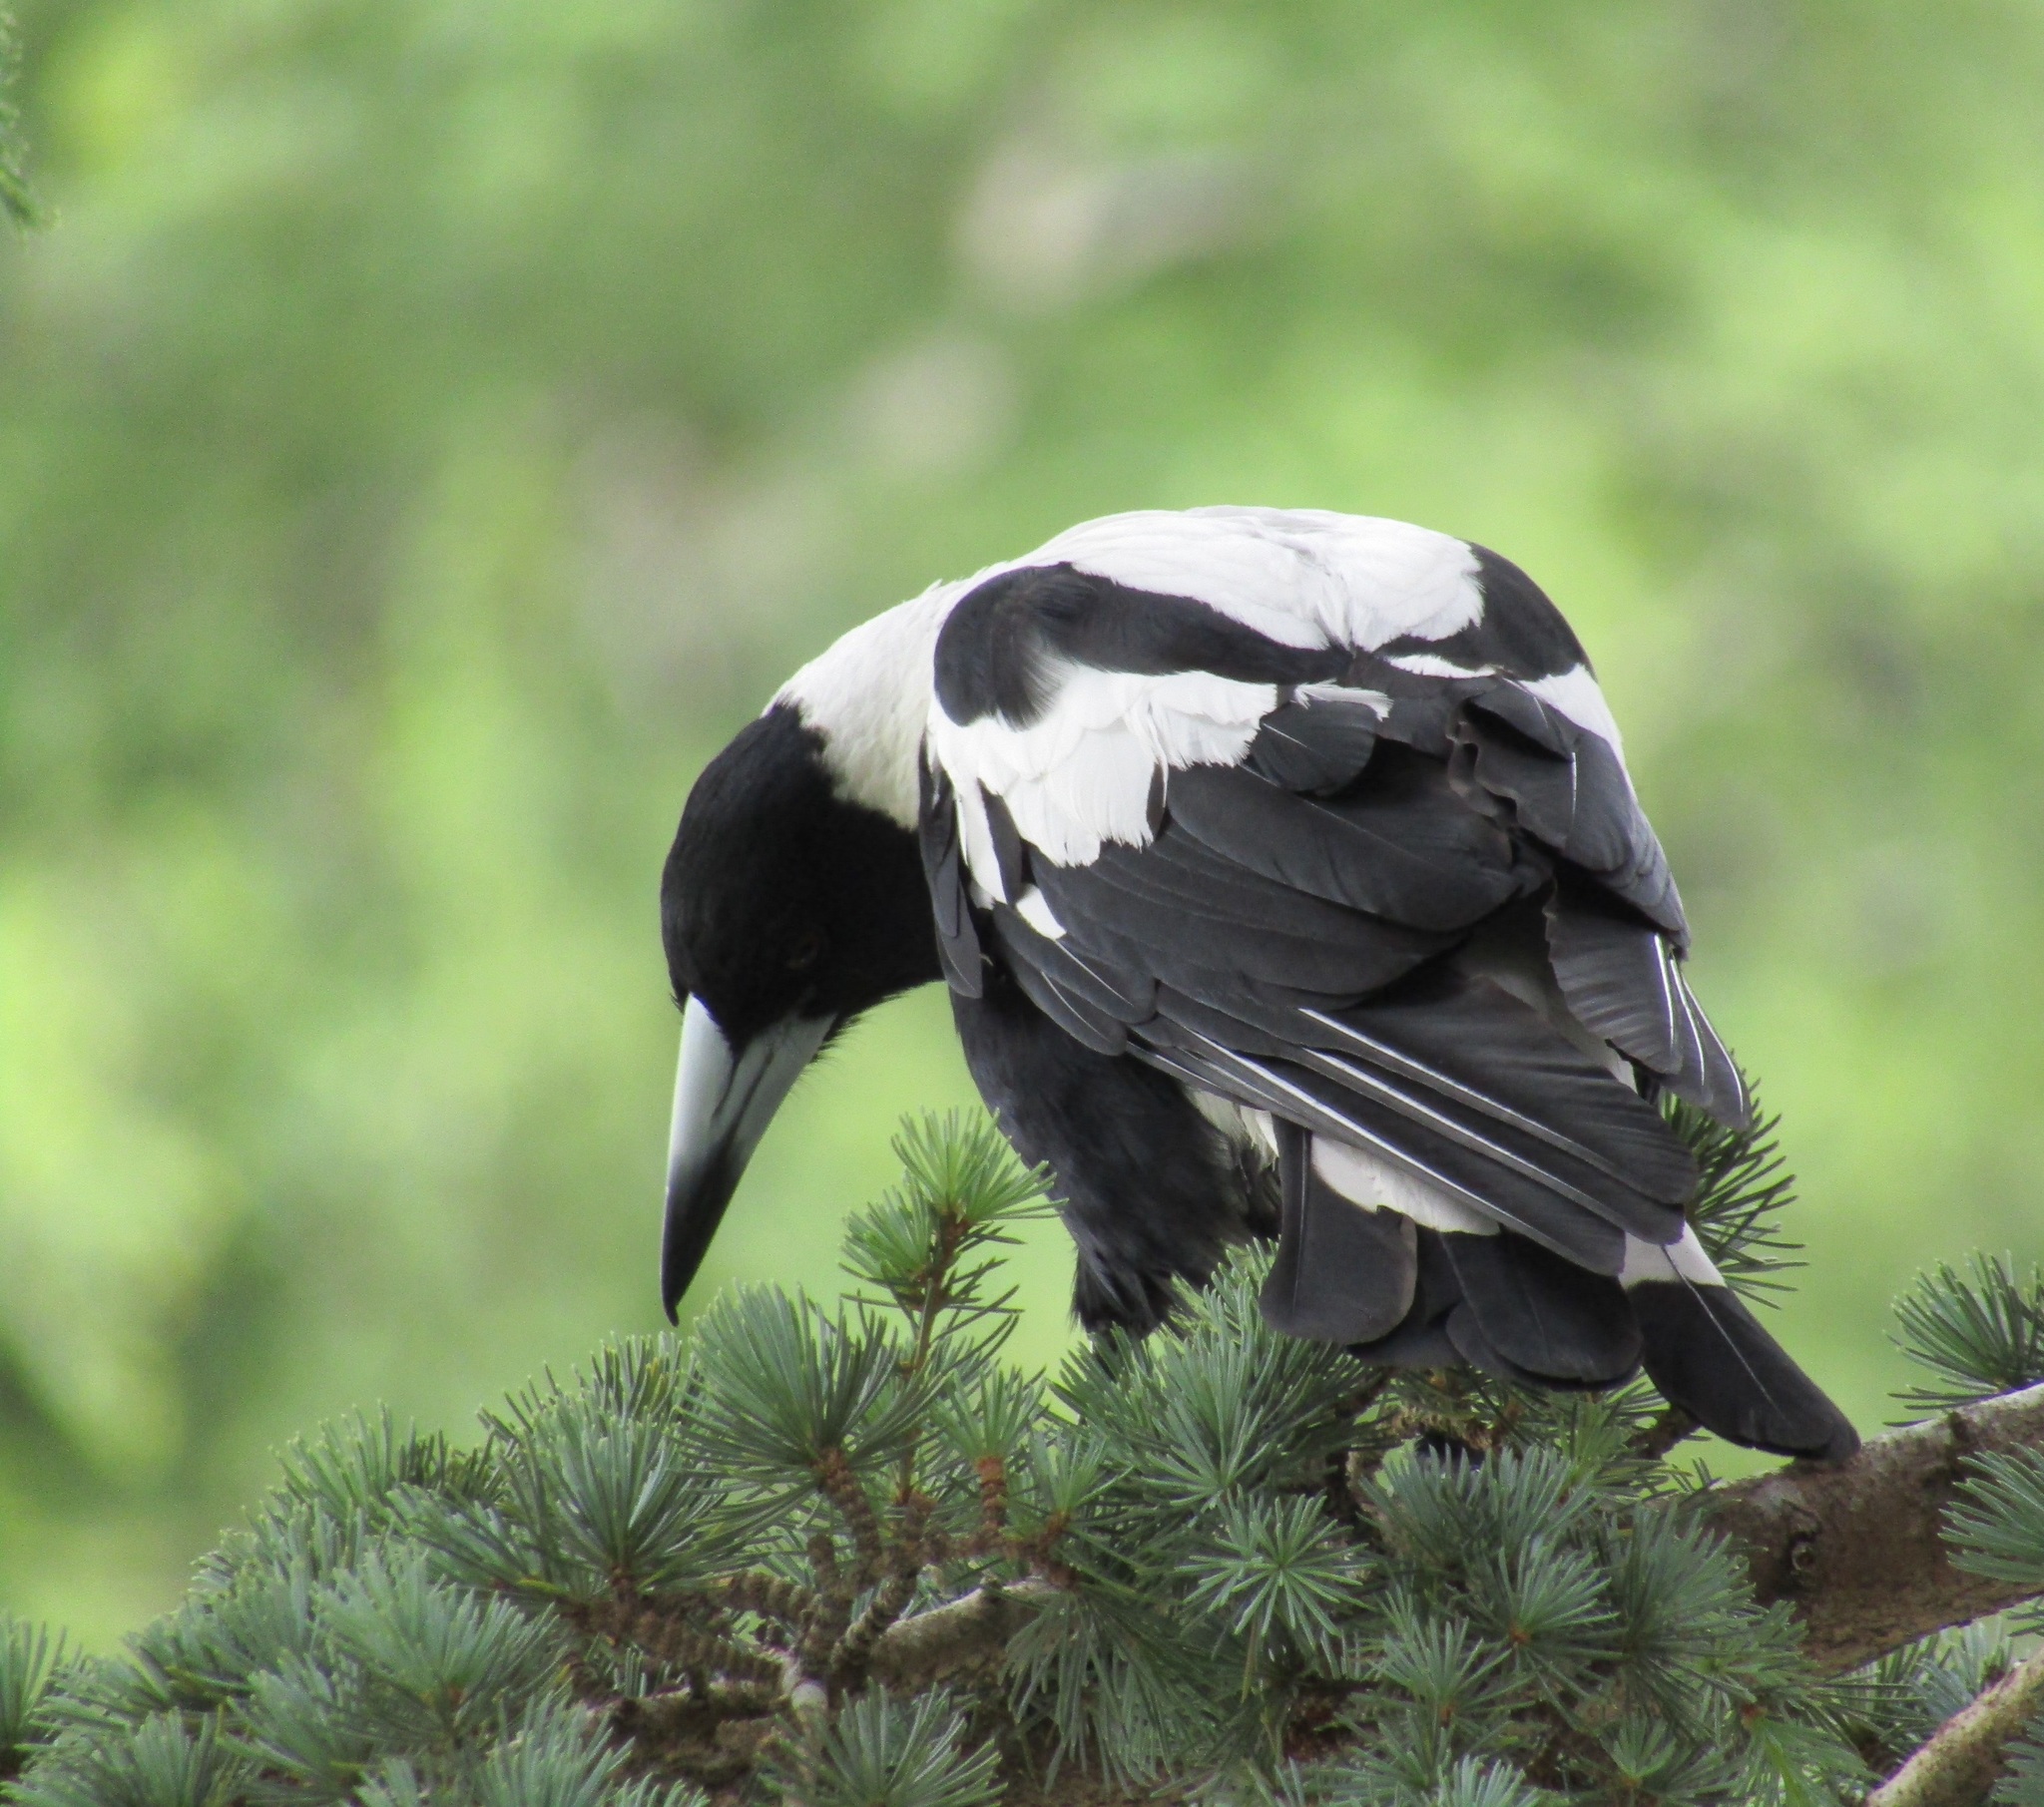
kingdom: Animalia
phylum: Chordata
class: Aves
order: Passeriformes
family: Cracticidae
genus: Gymnorhina
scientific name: Gymnorhina tibicen
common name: Australian magpie
